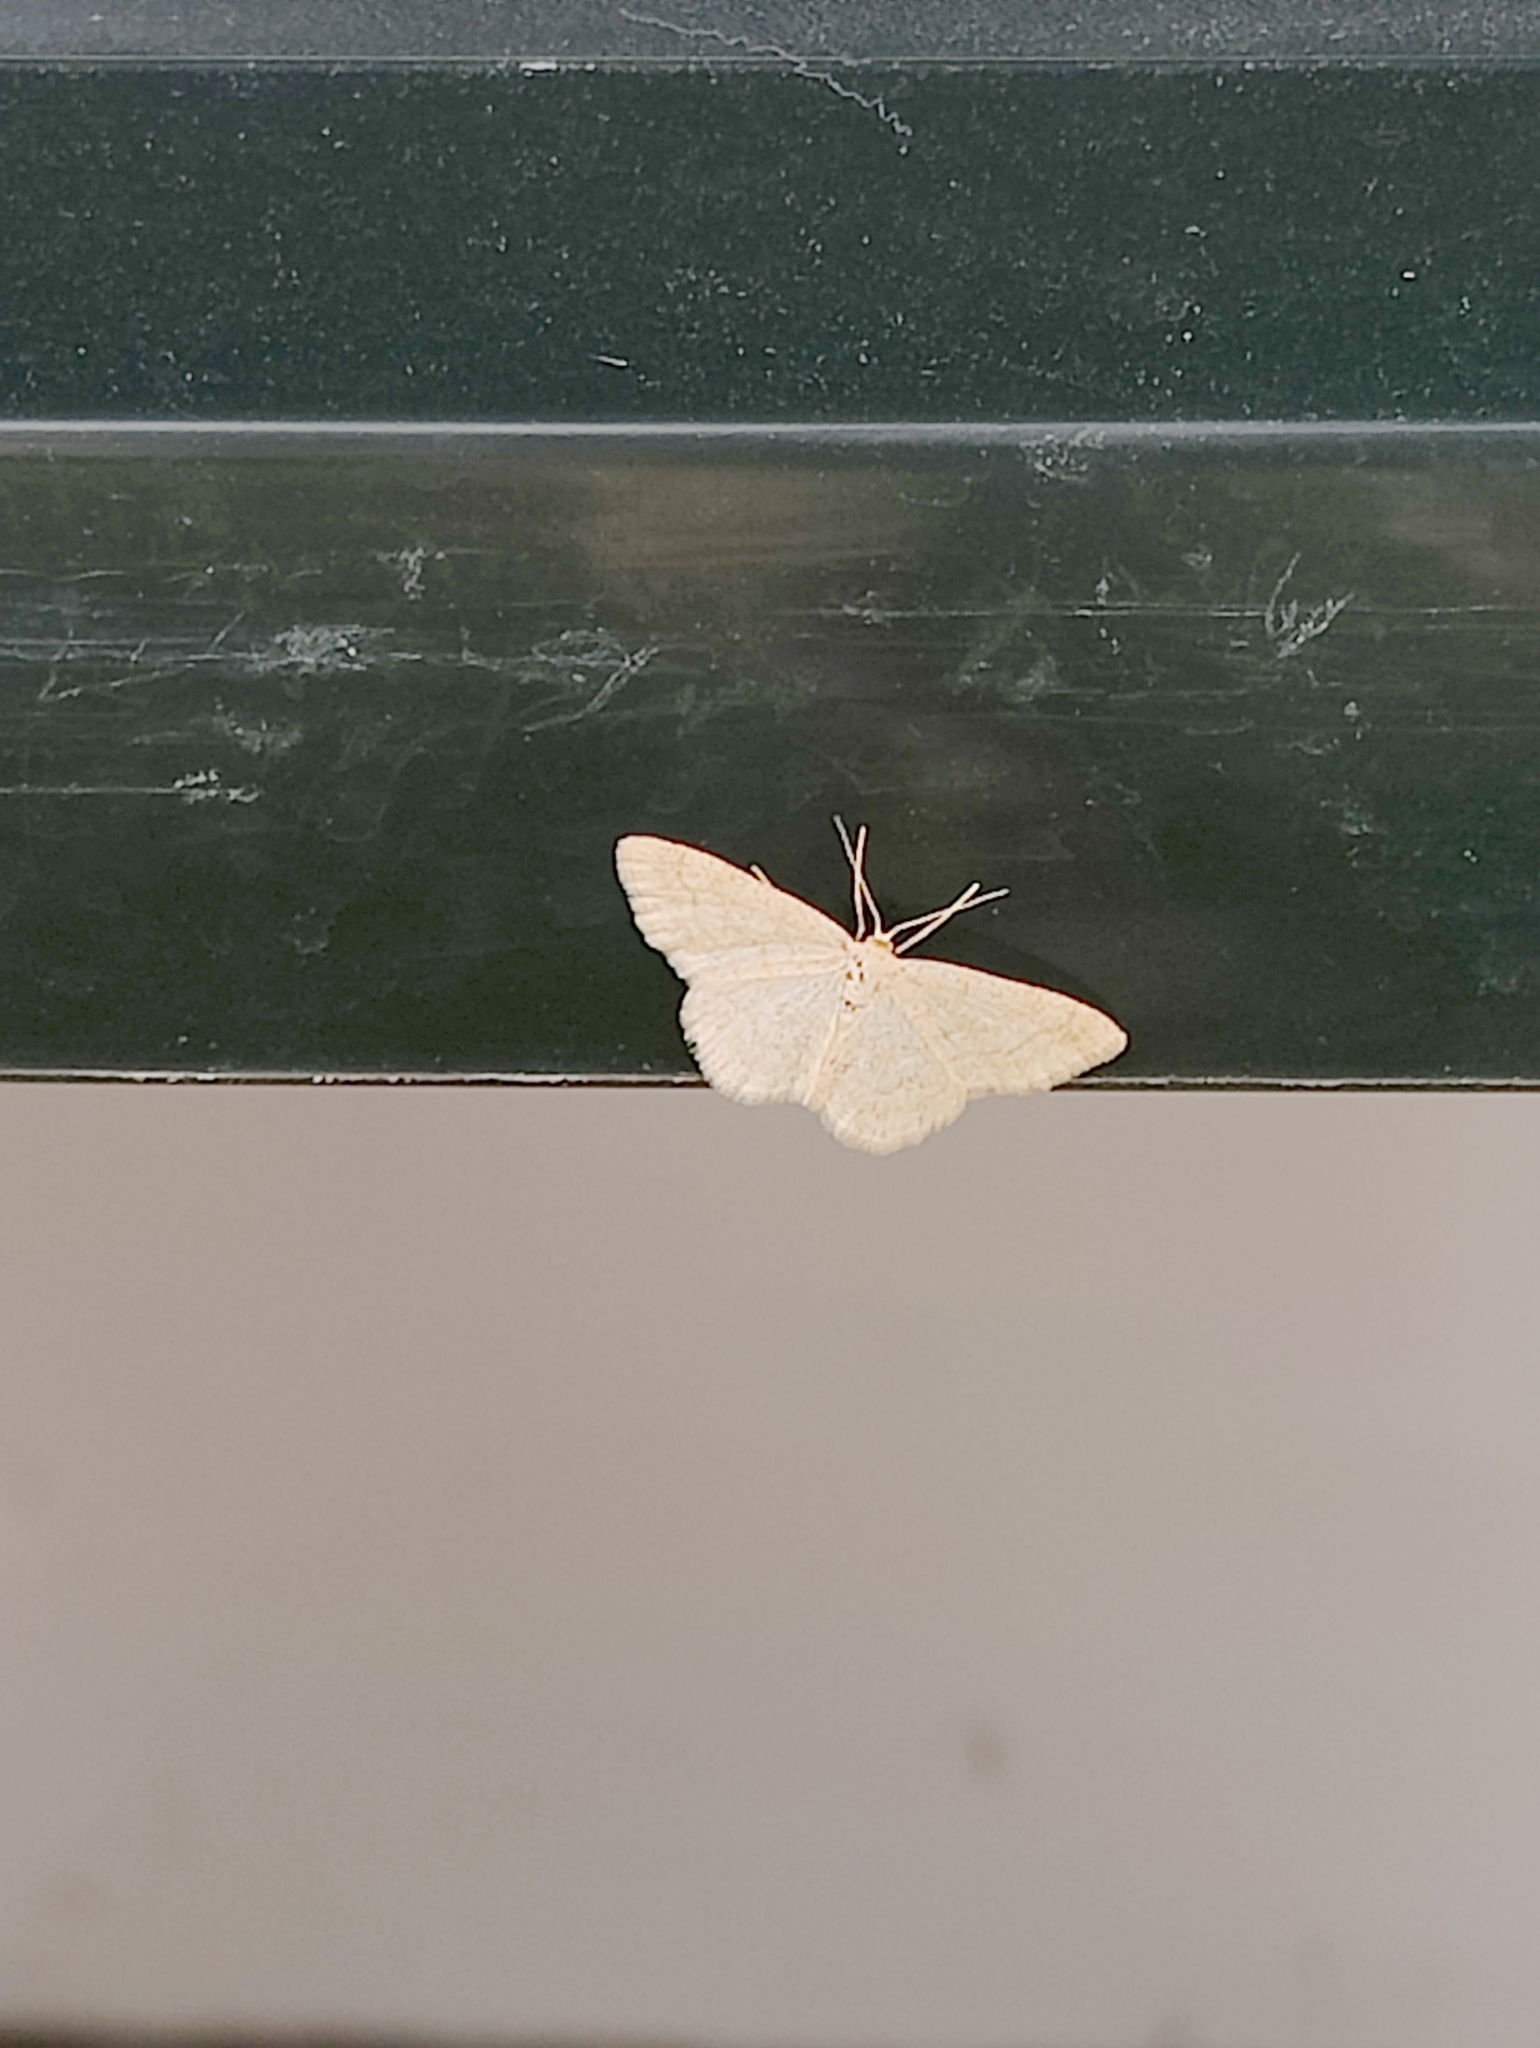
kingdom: Animalia
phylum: Arthropoda
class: Insecta
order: Lepidoptera
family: Geometridae
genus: Scopula
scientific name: Scopula ternata
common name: Smoky wave
